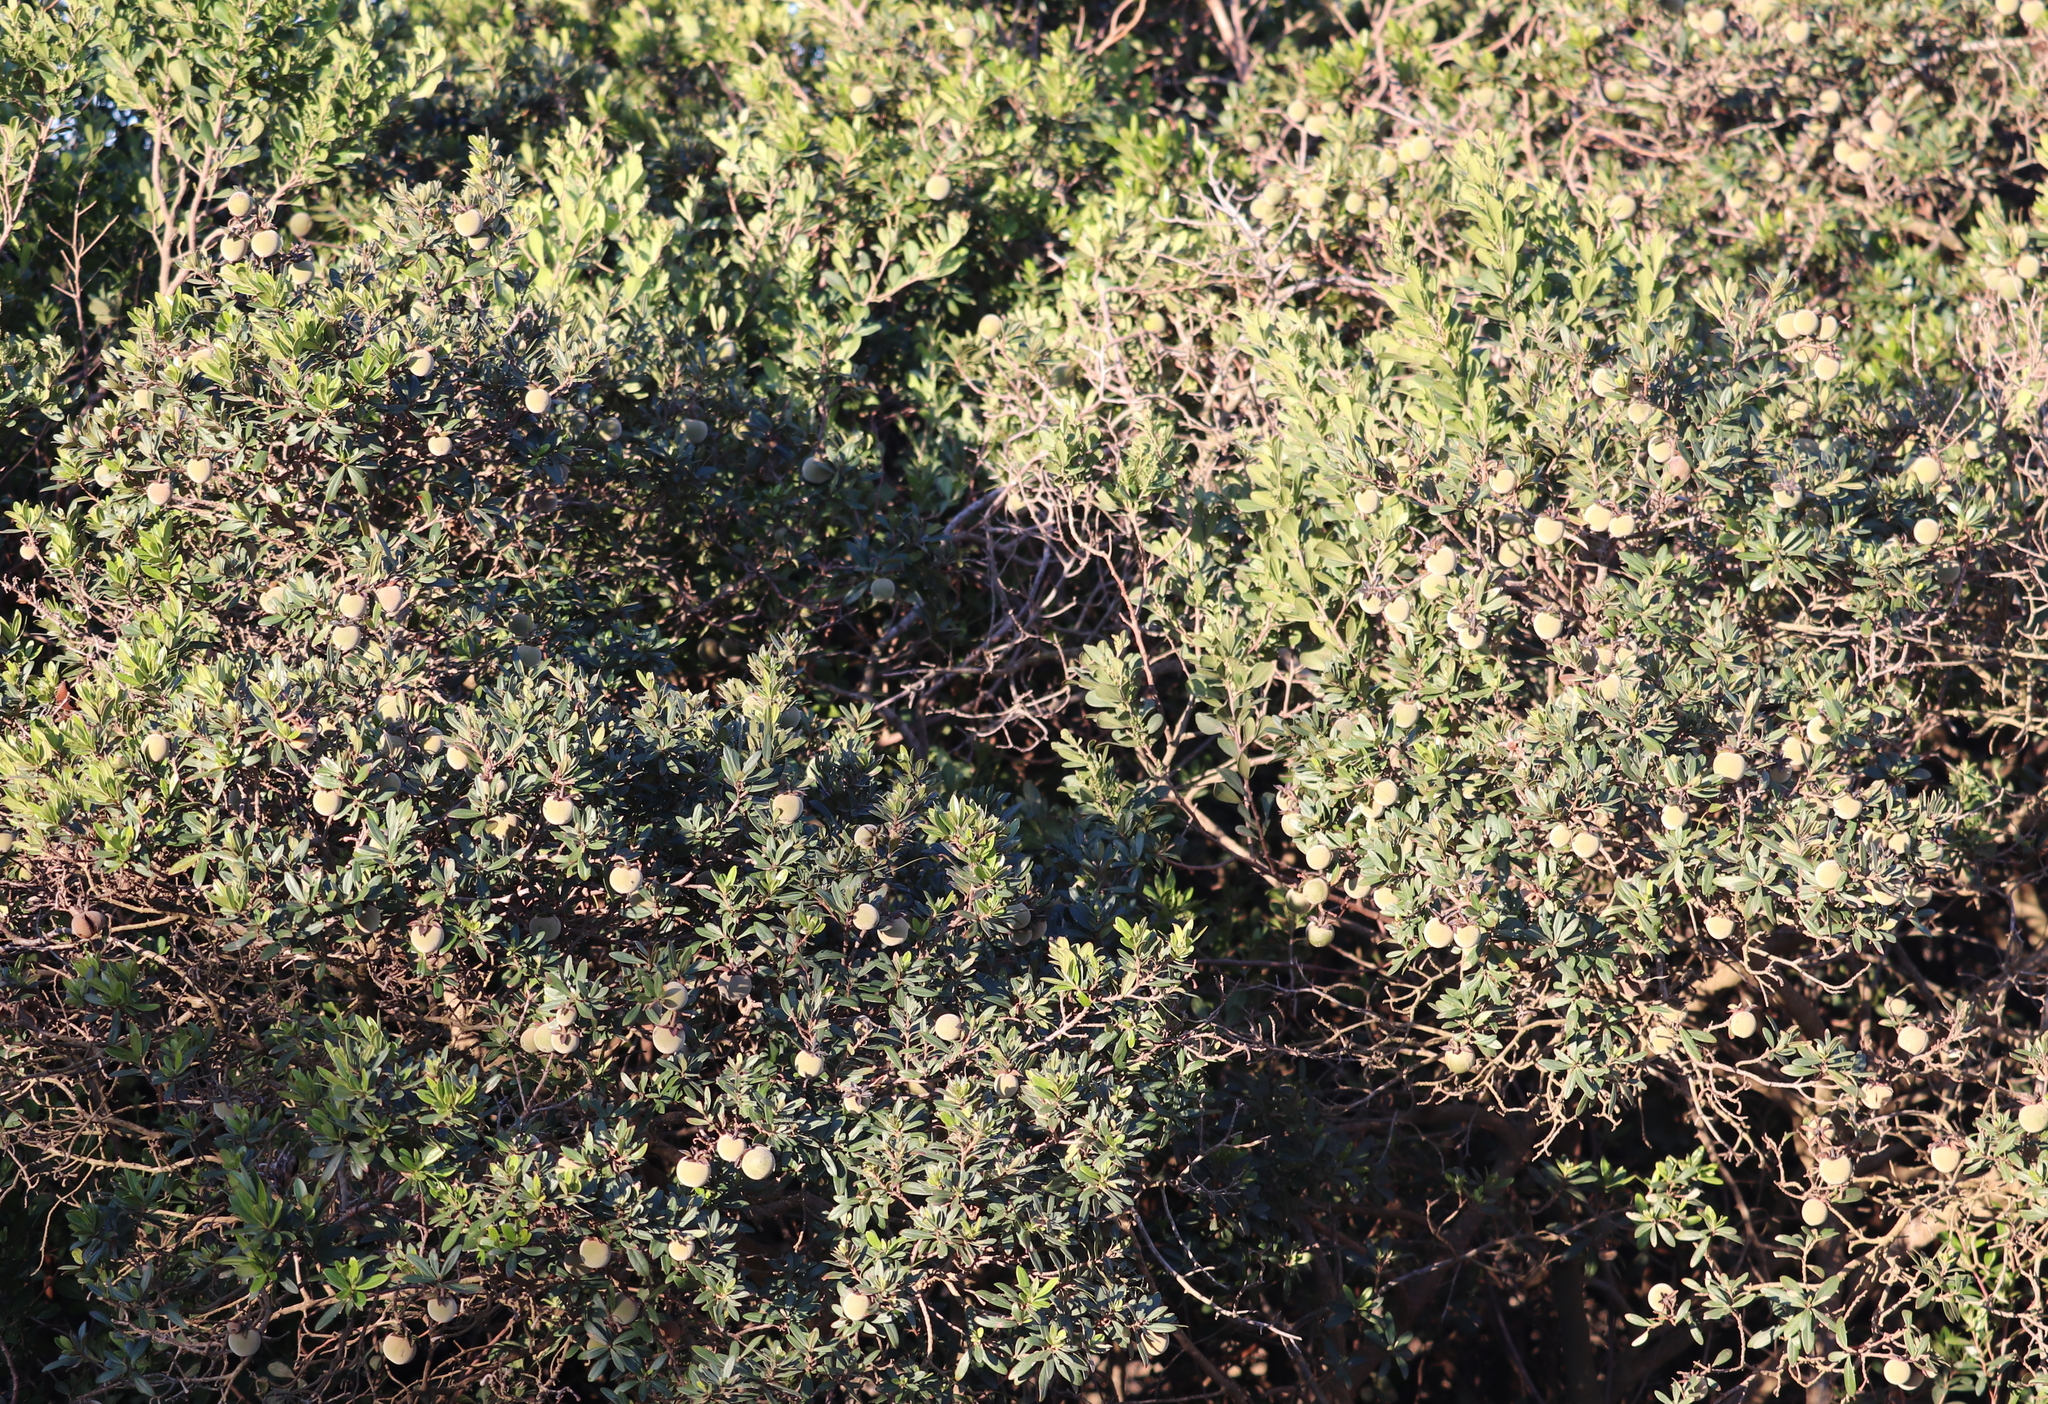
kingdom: Plantae
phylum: Tracheophyta
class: Magnoliopsida
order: Ericales
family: Ebenaceae
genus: Diospyros
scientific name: Diospyros dichrophylla
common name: Common star-apple
